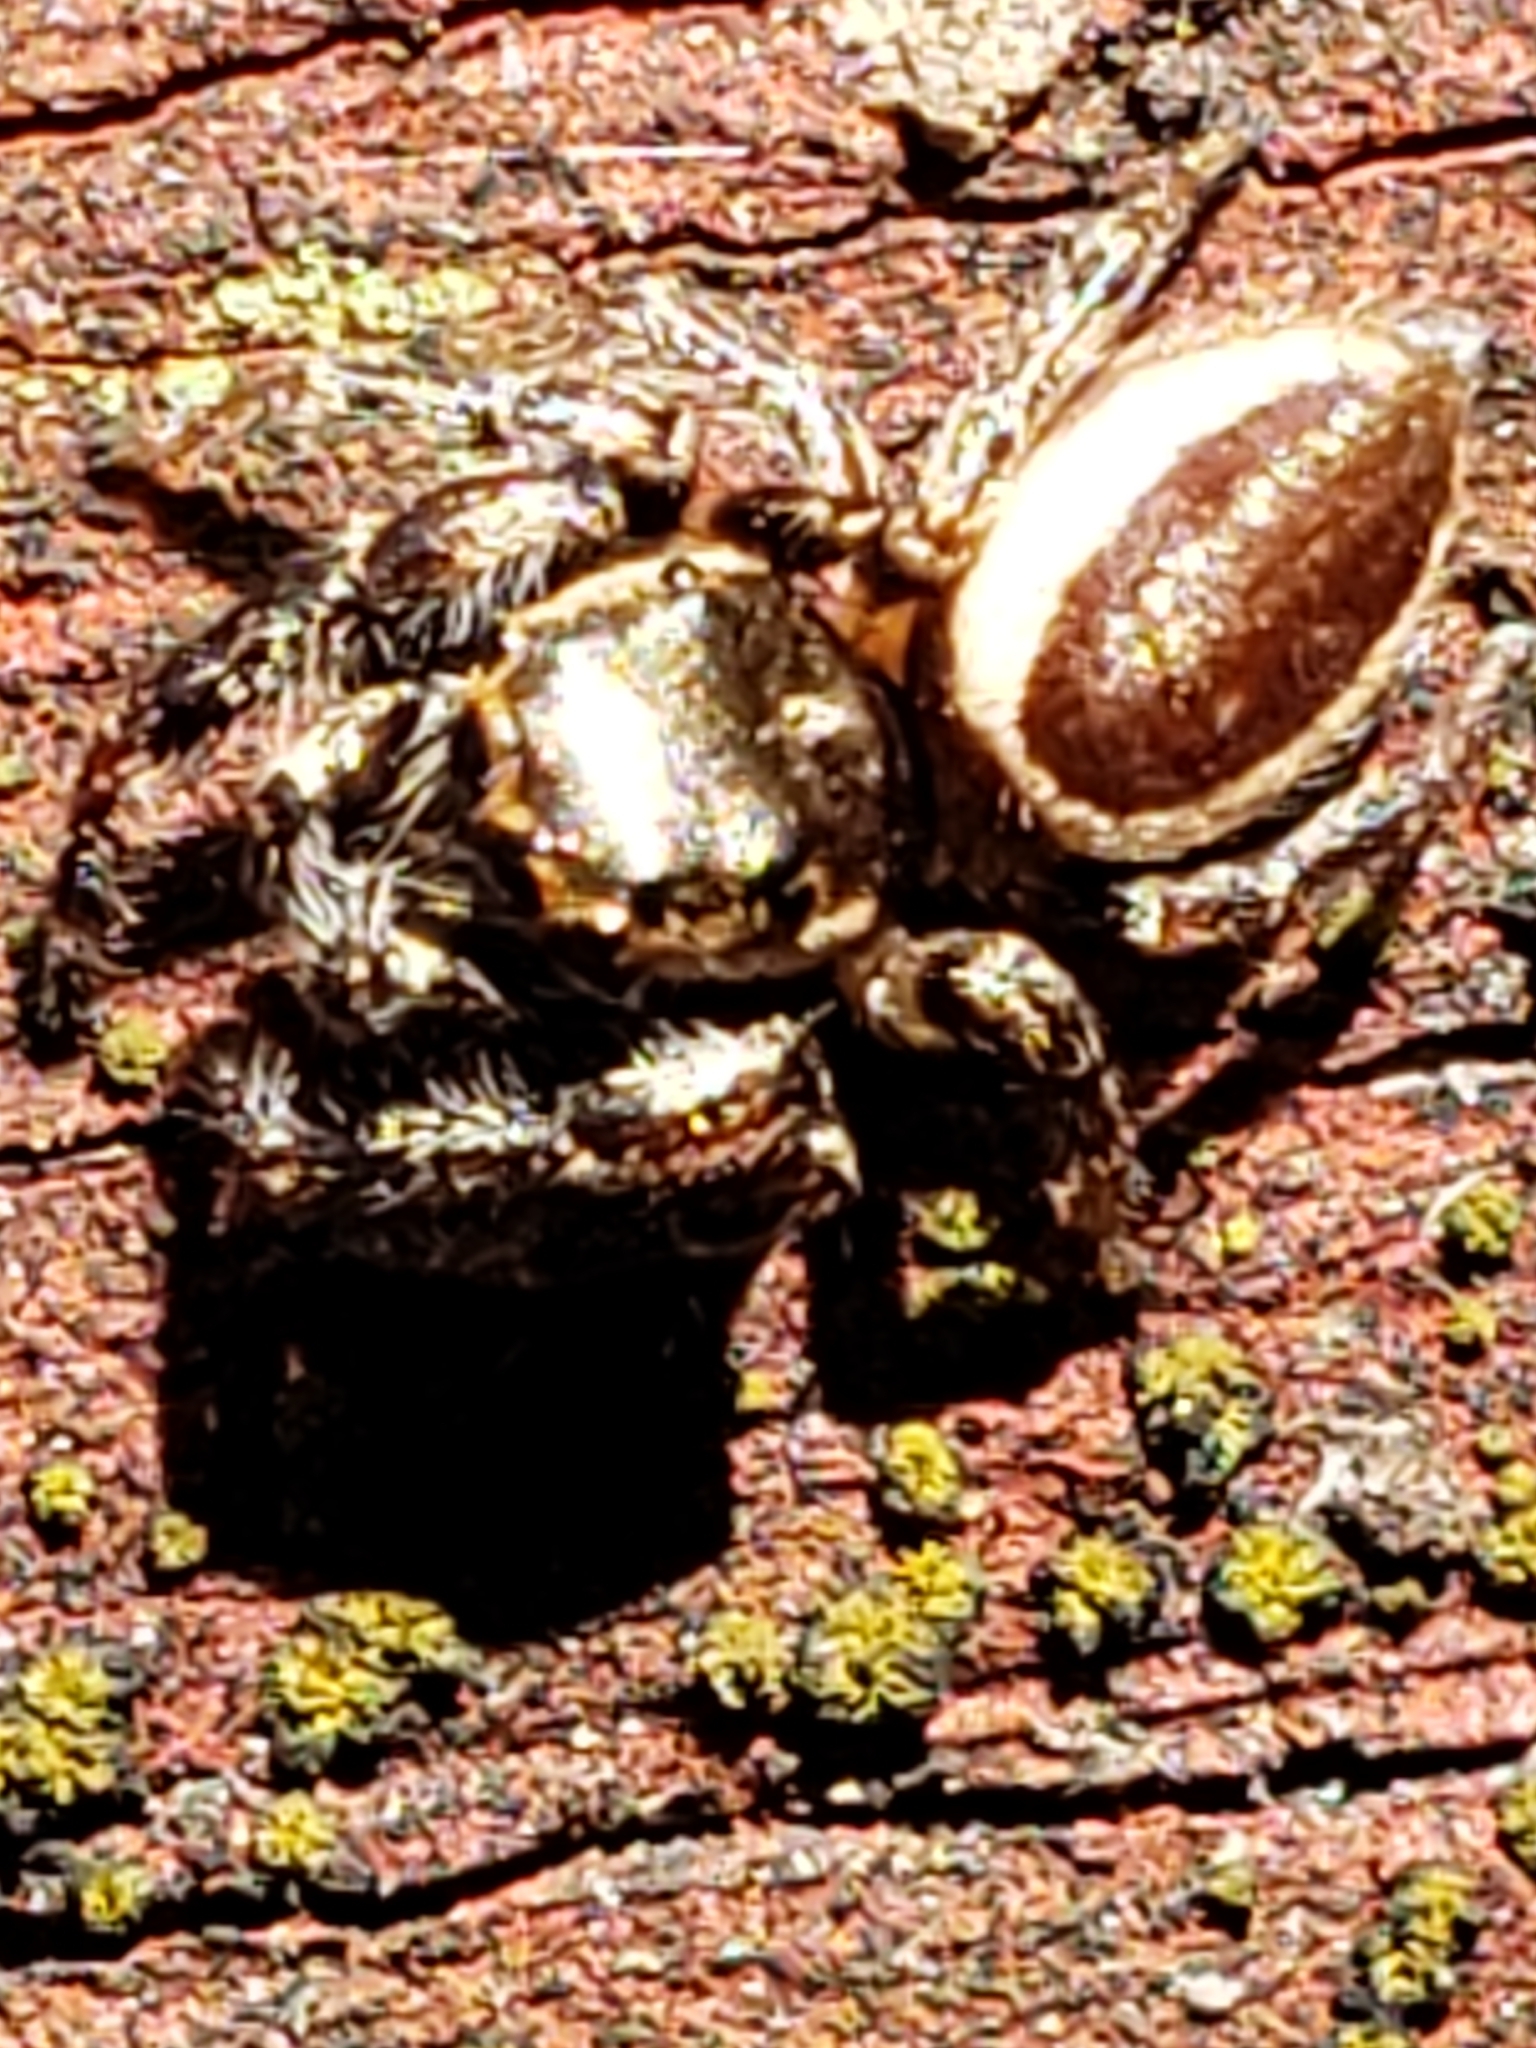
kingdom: Animalia
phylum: Arthropoda
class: Arachnida
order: Araneae
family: Salticidae
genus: Eris
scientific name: Eris militaris
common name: Bronze jumper
